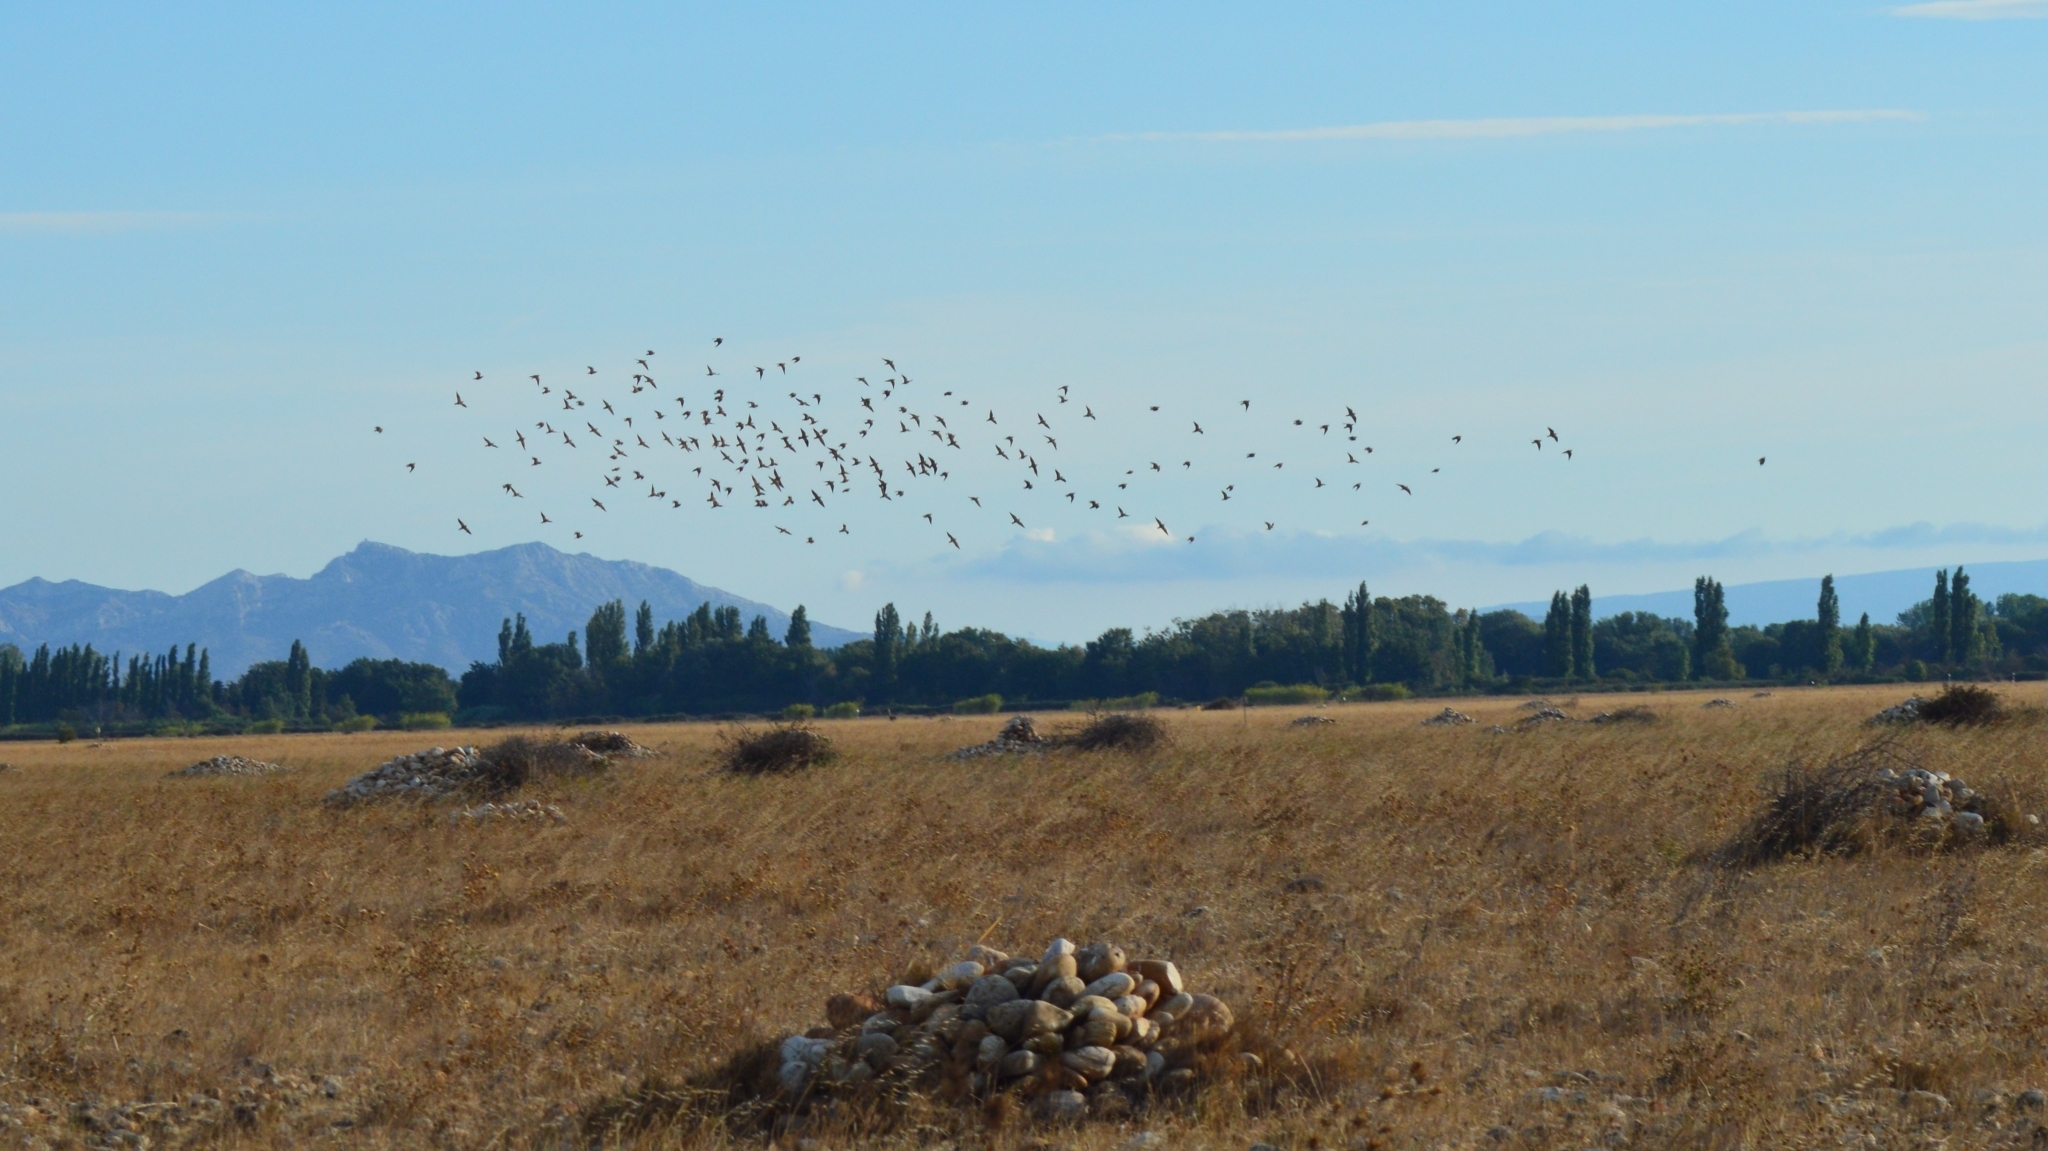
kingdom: Animalia
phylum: Chordata
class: Aves
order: Passeriformes
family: Alaudidae
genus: Melanocorypha
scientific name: Melanocorypha calandra
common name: Calandra lark
